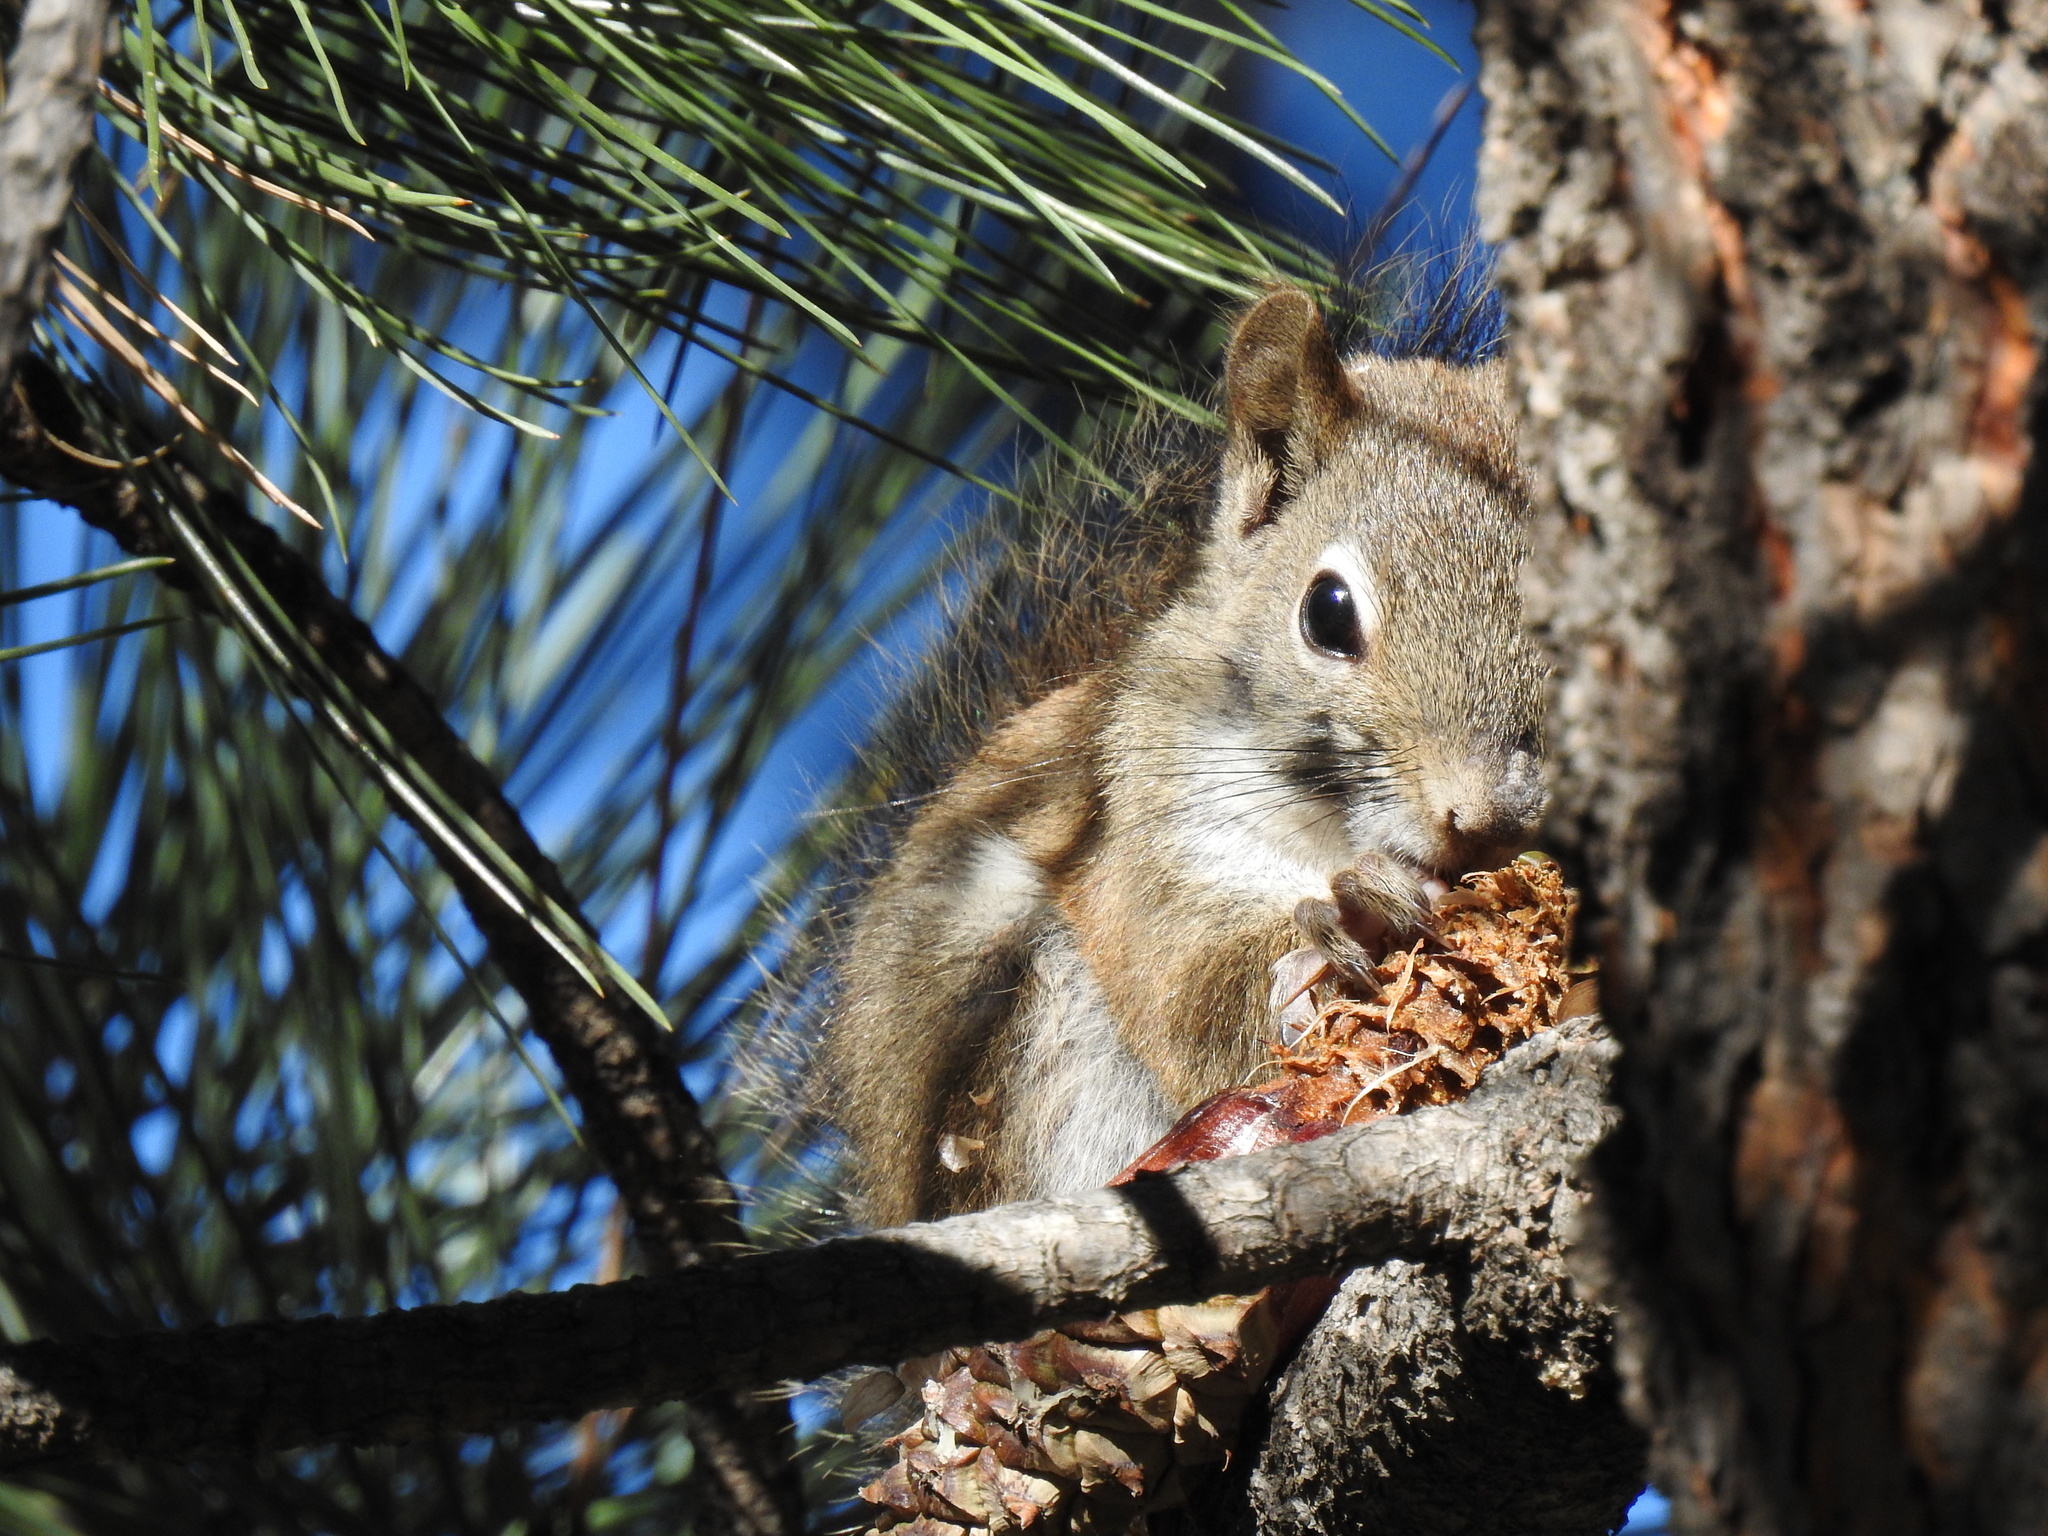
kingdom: Animalia
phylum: Chordata
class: Mammalia
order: Rodentia
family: Sciuridae
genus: Tamiasciurus
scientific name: Tamiasciurus hudsonicus
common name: Red squirrel
